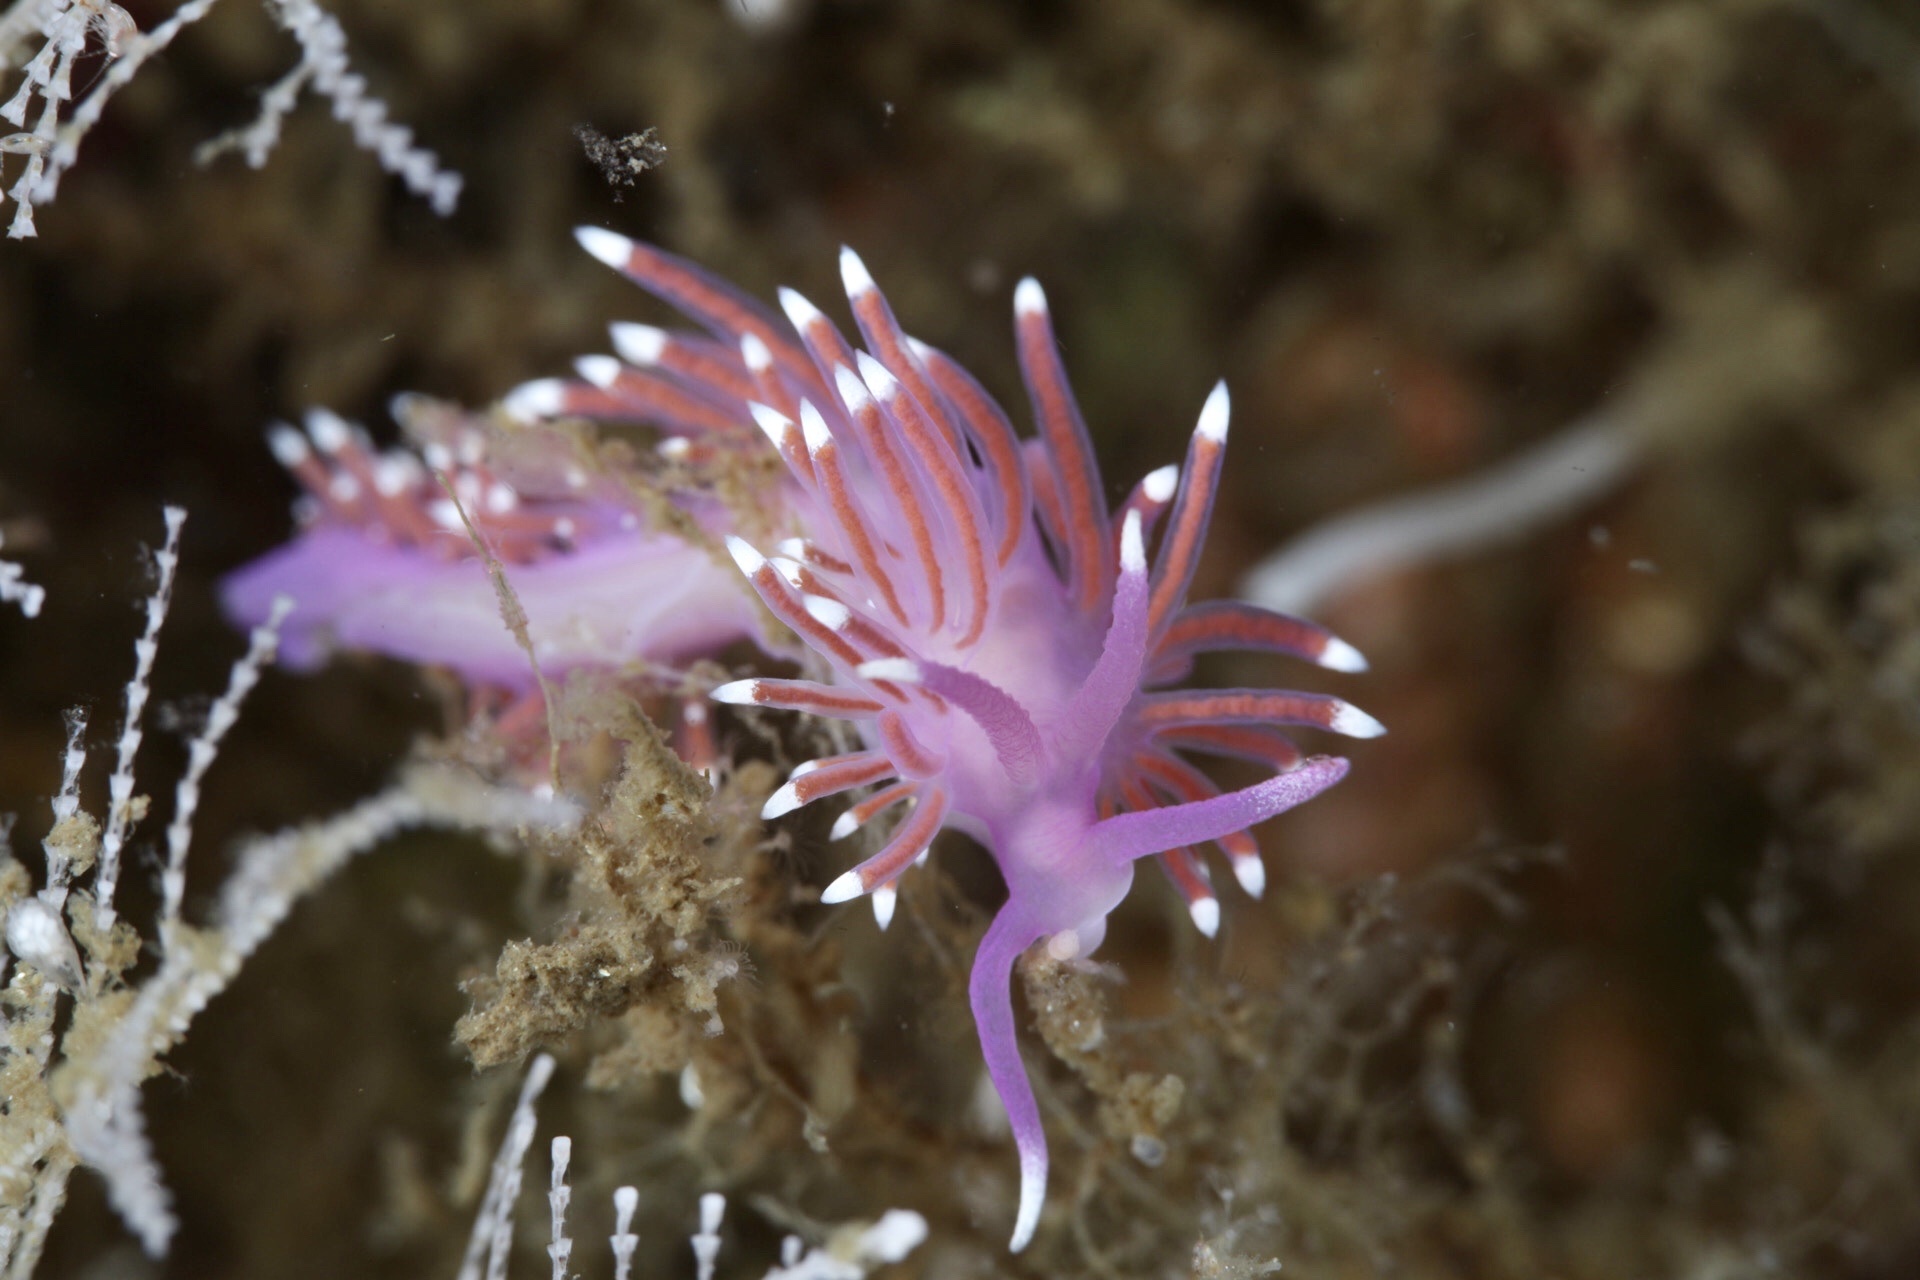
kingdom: Animalia
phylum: Mollusca
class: Gastropoda
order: Nudibranchia
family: Flabellinidae
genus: Edmundsella
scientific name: Edmundsella pedata
